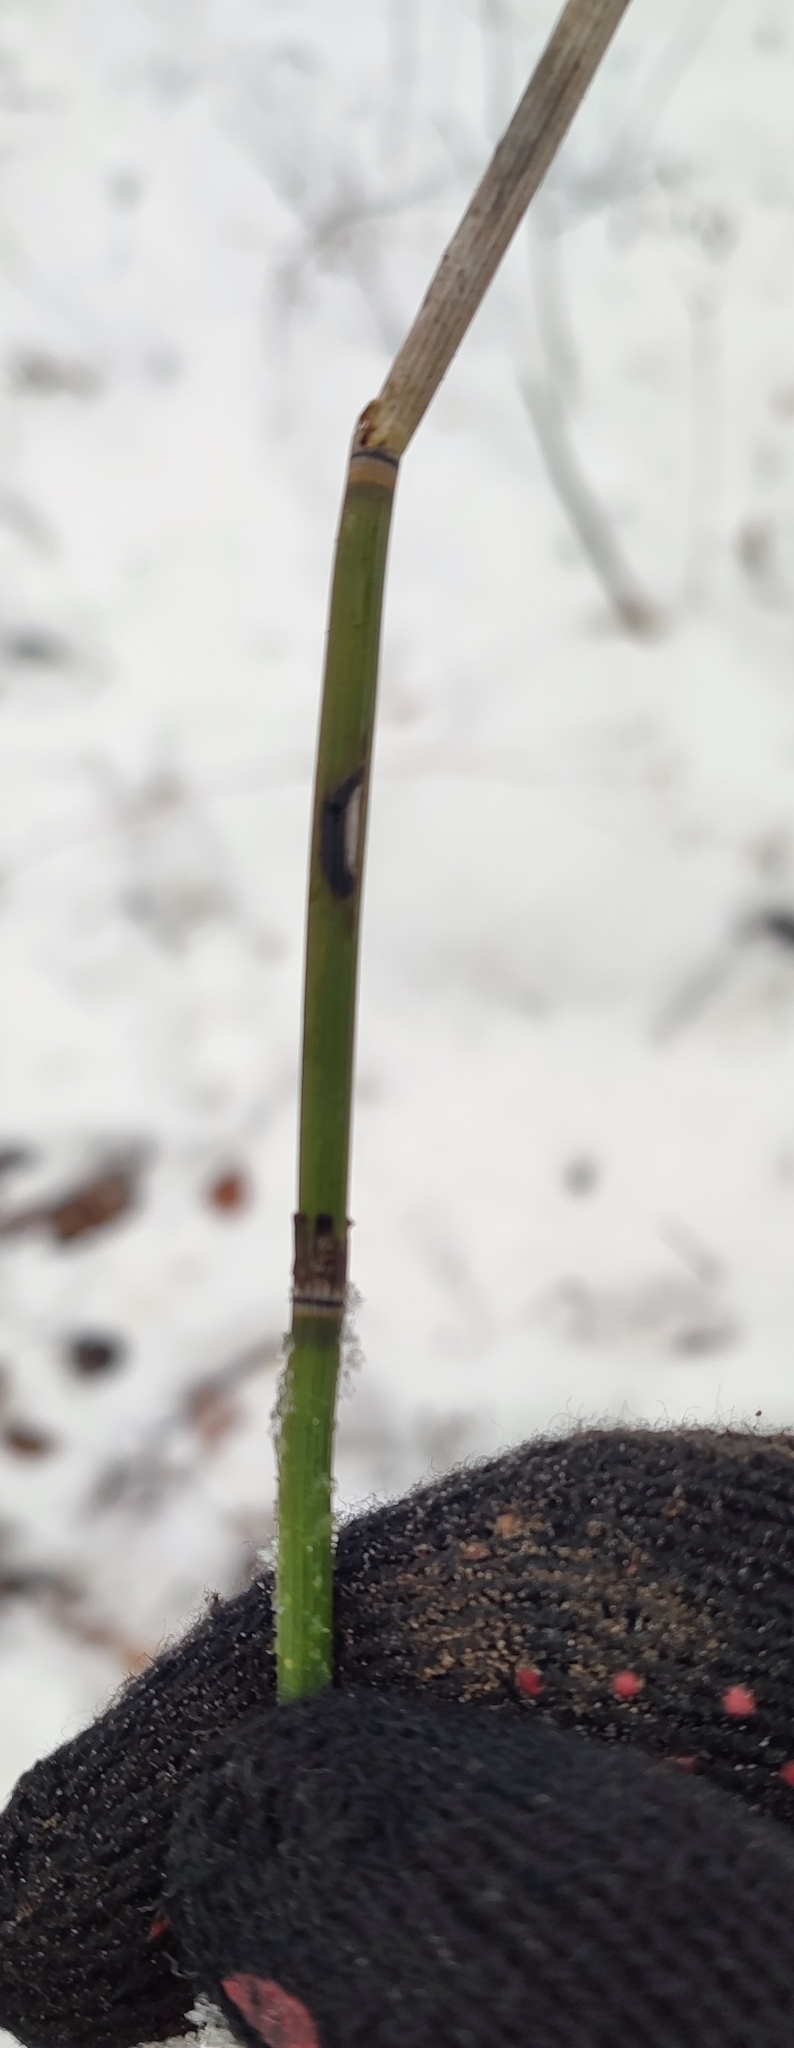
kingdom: Plantae
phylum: Tracheophyta
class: Polypodiopsida
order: Equisetales
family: Equisetaceae
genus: Equisetum
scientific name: Equisetum hyemale
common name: Rough horsetail
